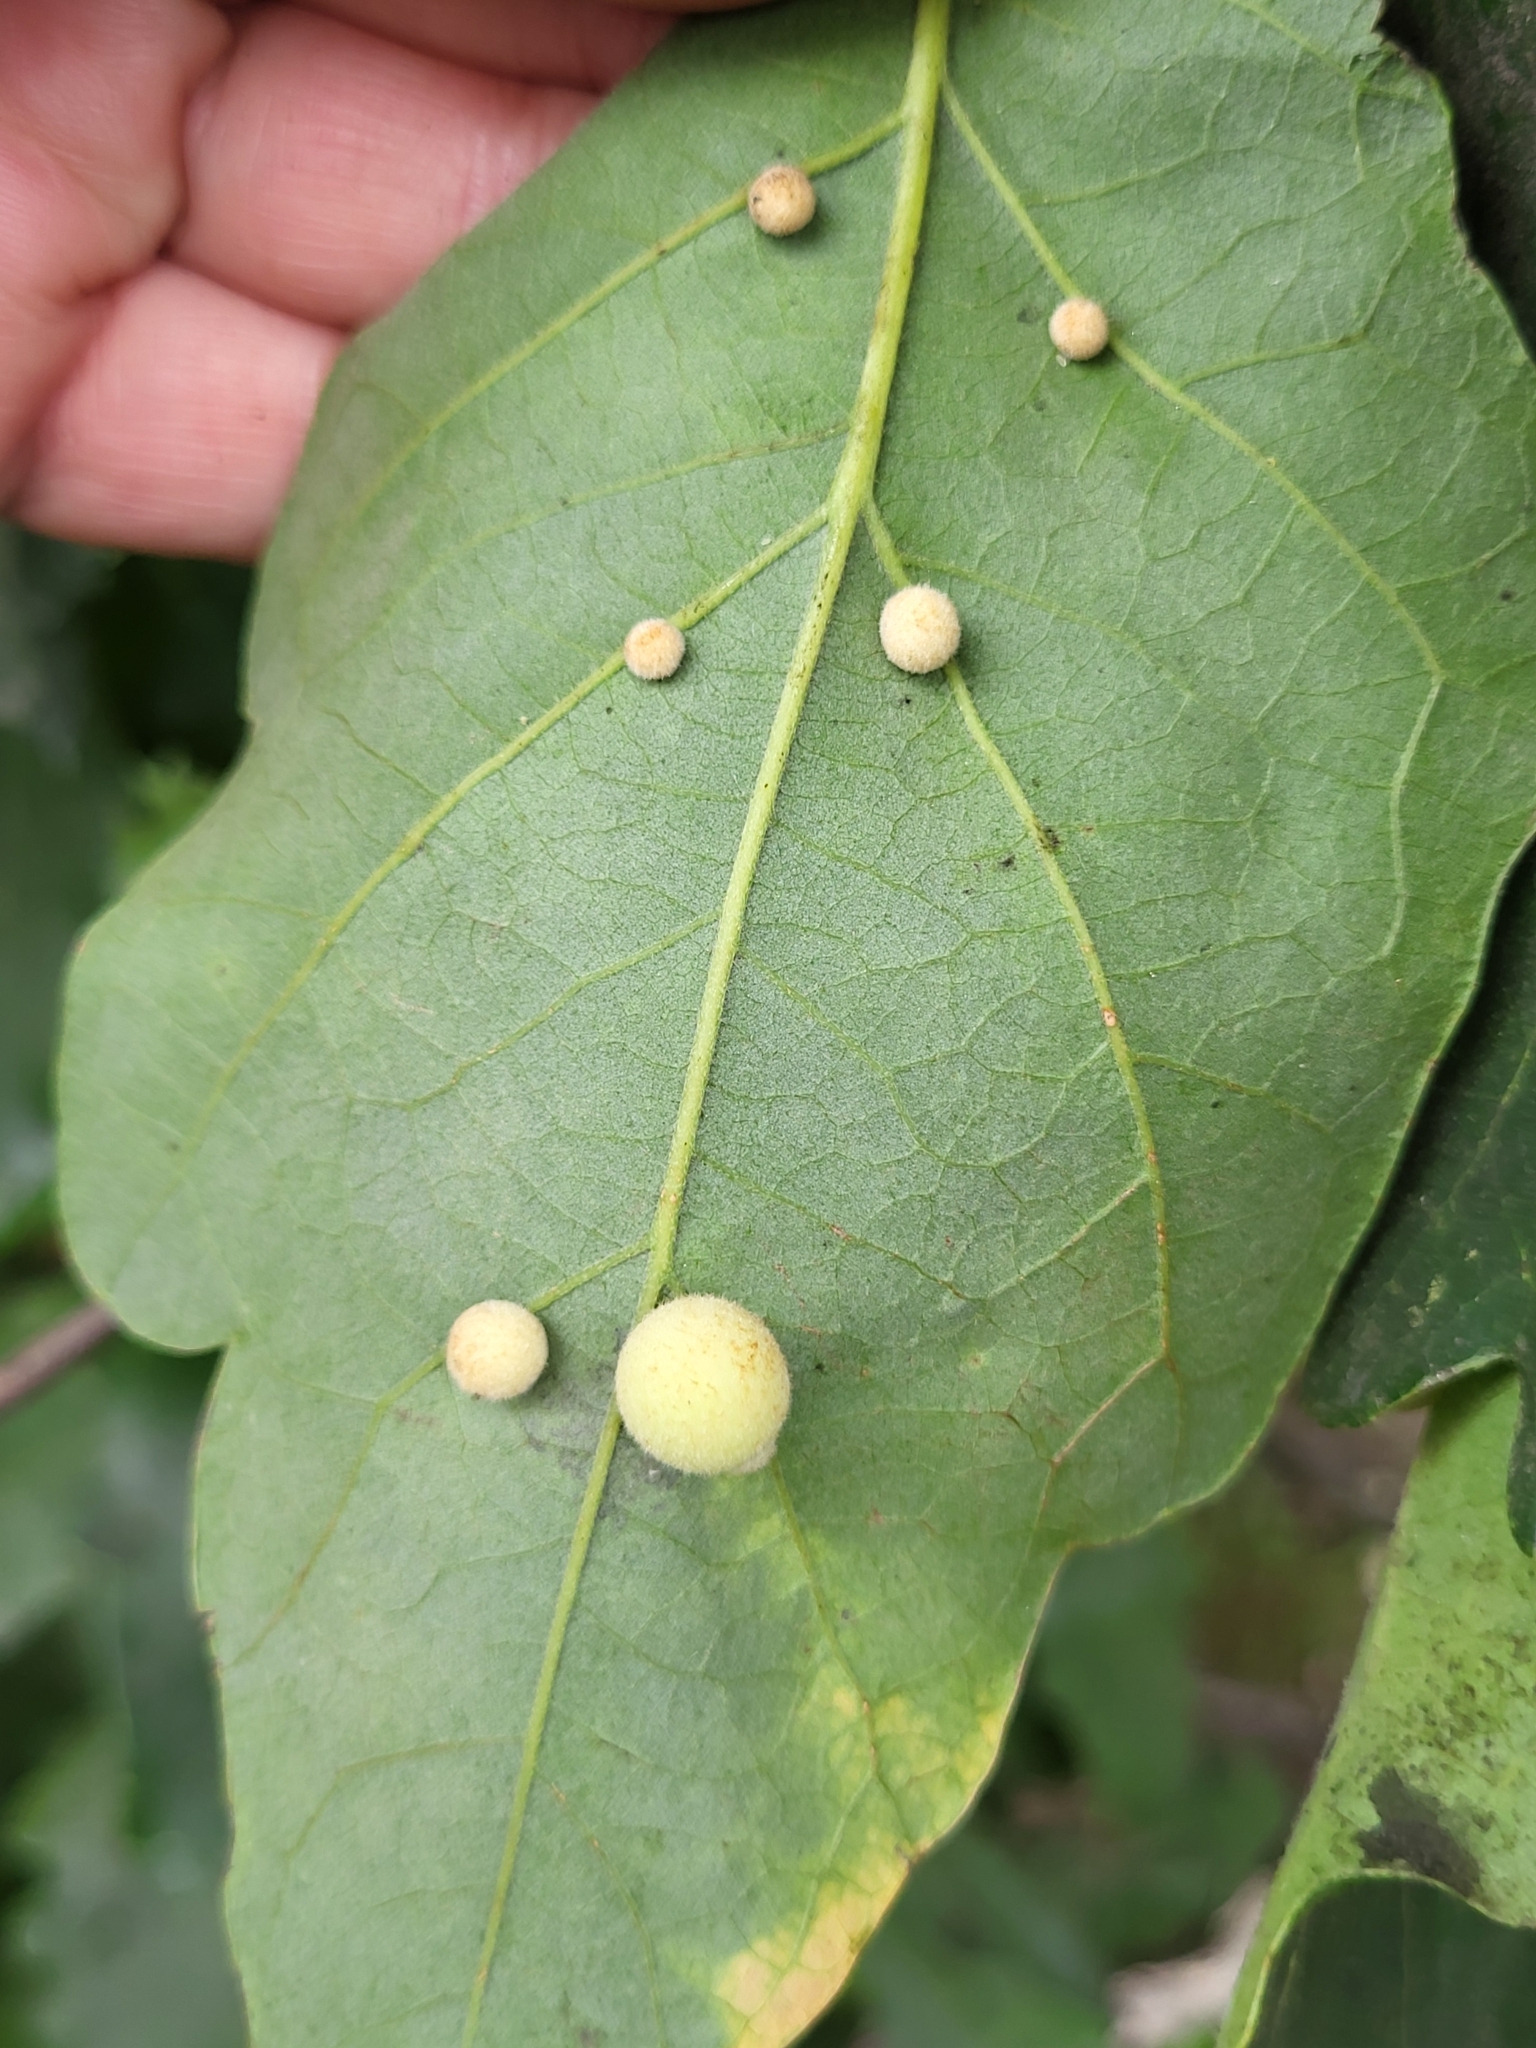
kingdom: Animalia
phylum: Arthropoda
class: Insecta
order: Hymenoptera
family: Cynipidae
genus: Philonix
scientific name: Philonix fulvicollis
